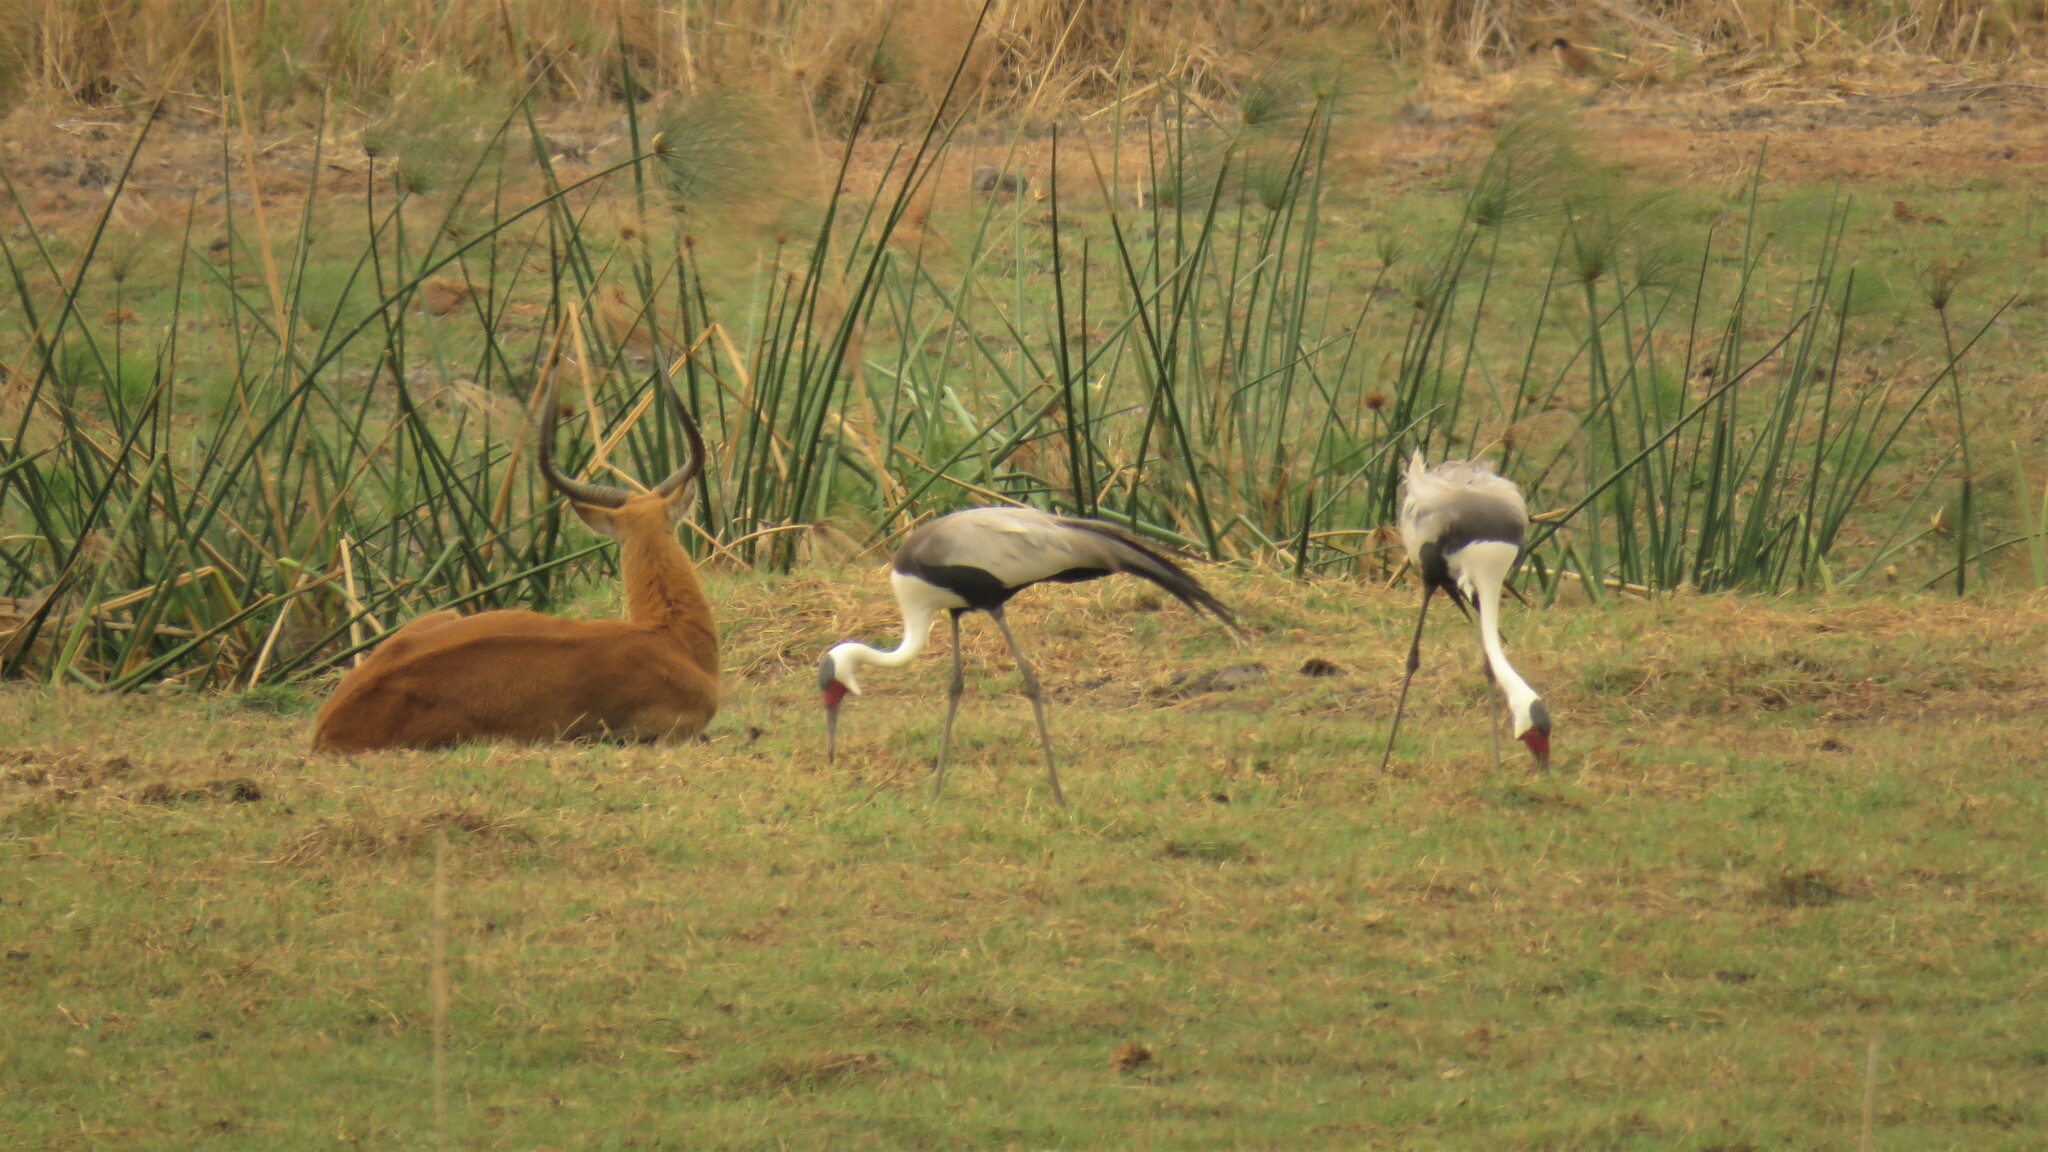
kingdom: Animalia
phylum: Chordata
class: Aves
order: Gruiformes
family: Gruidae
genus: Bugeranus
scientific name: Bugeranus carunculatus
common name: Wattled crane
